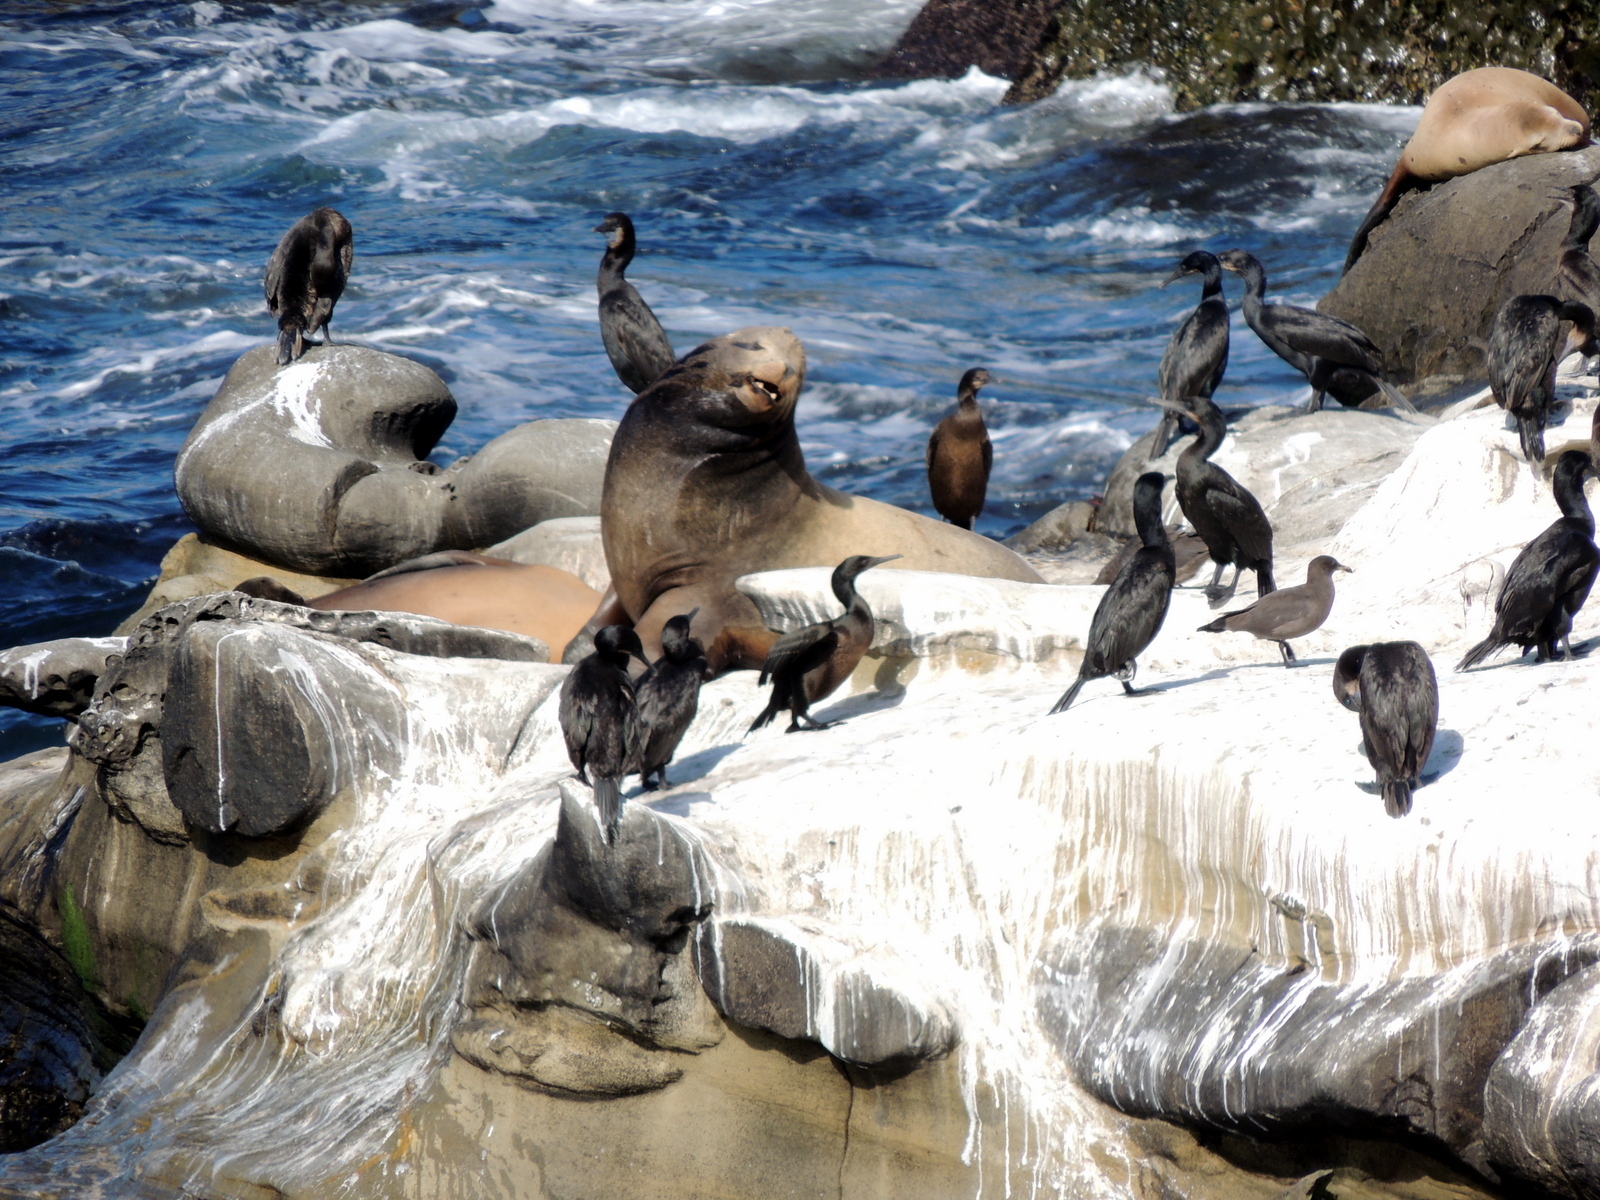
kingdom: Animalia
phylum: Chordata
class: Aves
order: Suliformes
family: Phalacrocoracidae
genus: Urile
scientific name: Urile penicillatus
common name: Brandt's cormorant
